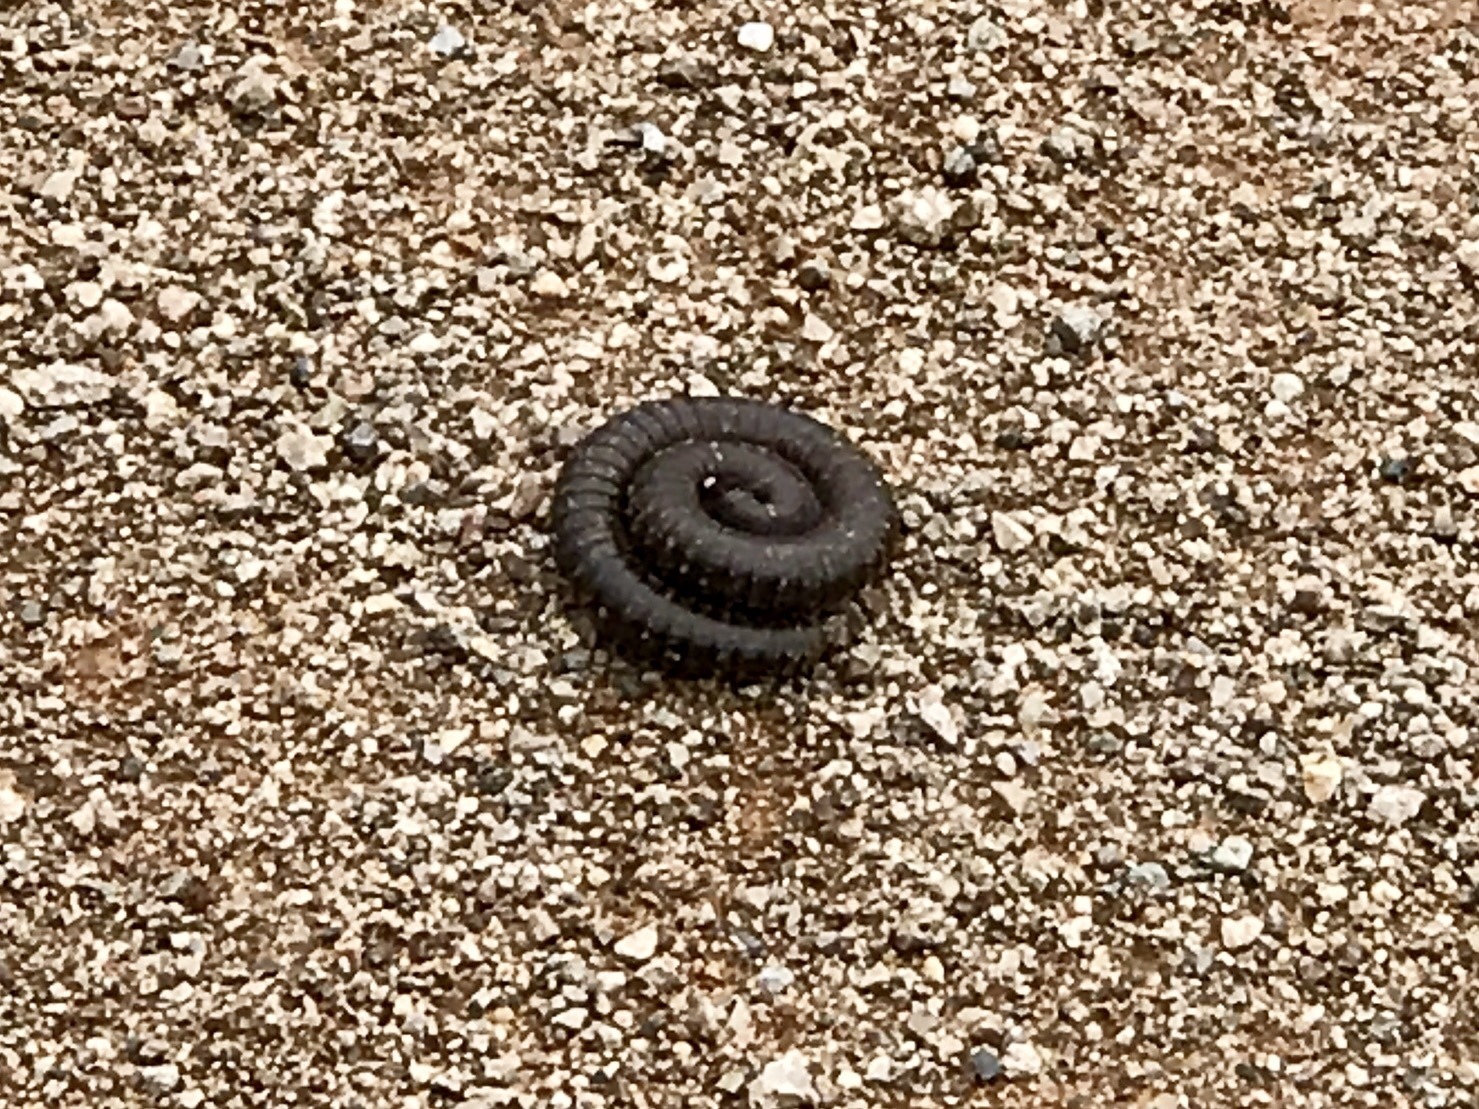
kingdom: Animalia
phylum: Arthropoda
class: Diplopoda
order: Spirostreptida
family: Spirostreptidae
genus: Orthoporus
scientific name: Orthoporus ornatus
